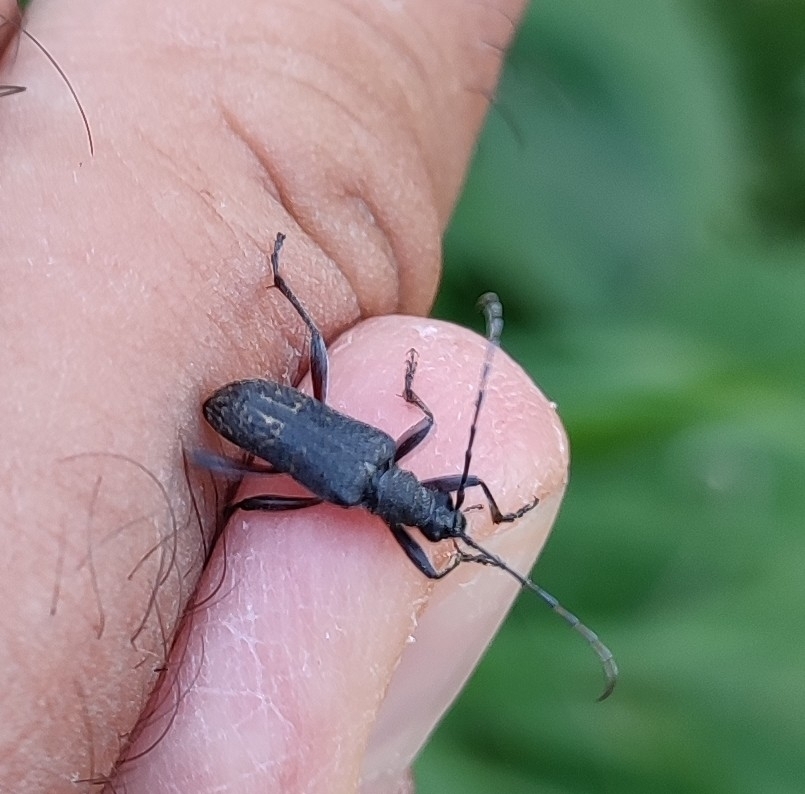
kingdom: Animalia
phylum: Arthropoda
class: Insecta
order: Coleoptera
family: Cerambycidae
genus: Evodinus
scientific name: Evodinus clathratus
